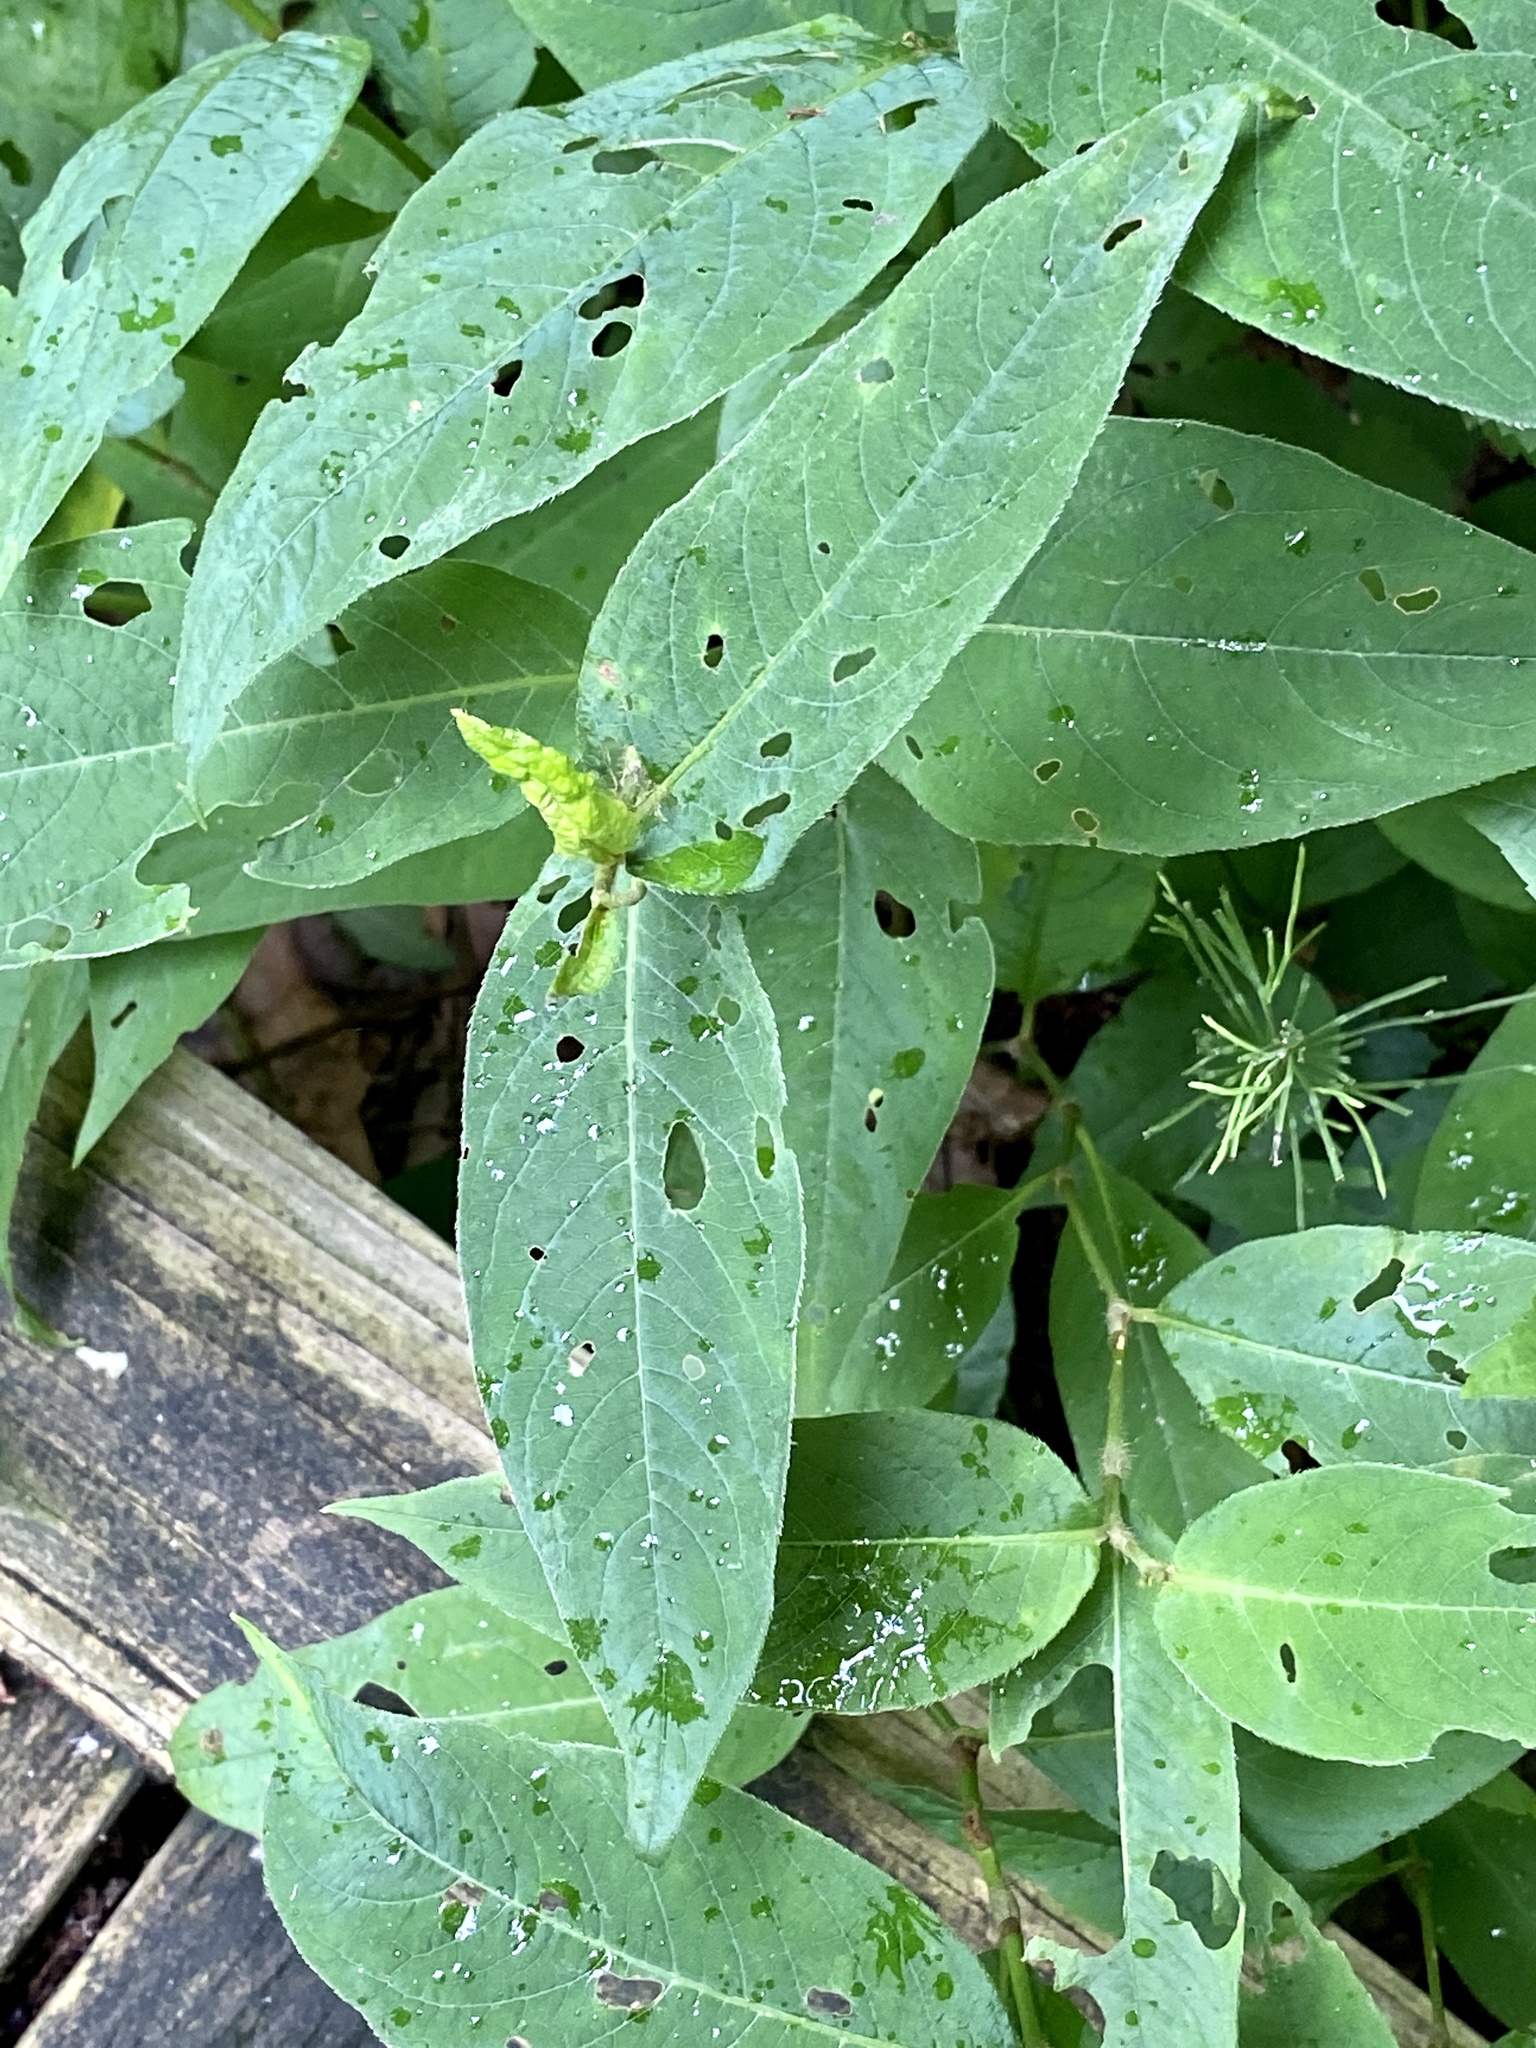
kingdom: Plantae
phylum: Tracheophyta
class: Magnoliopsida
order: Caryophyllales
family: Polygonaceae
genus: Persicaria
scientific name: Persicaria virginiana
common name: Jumpseed
